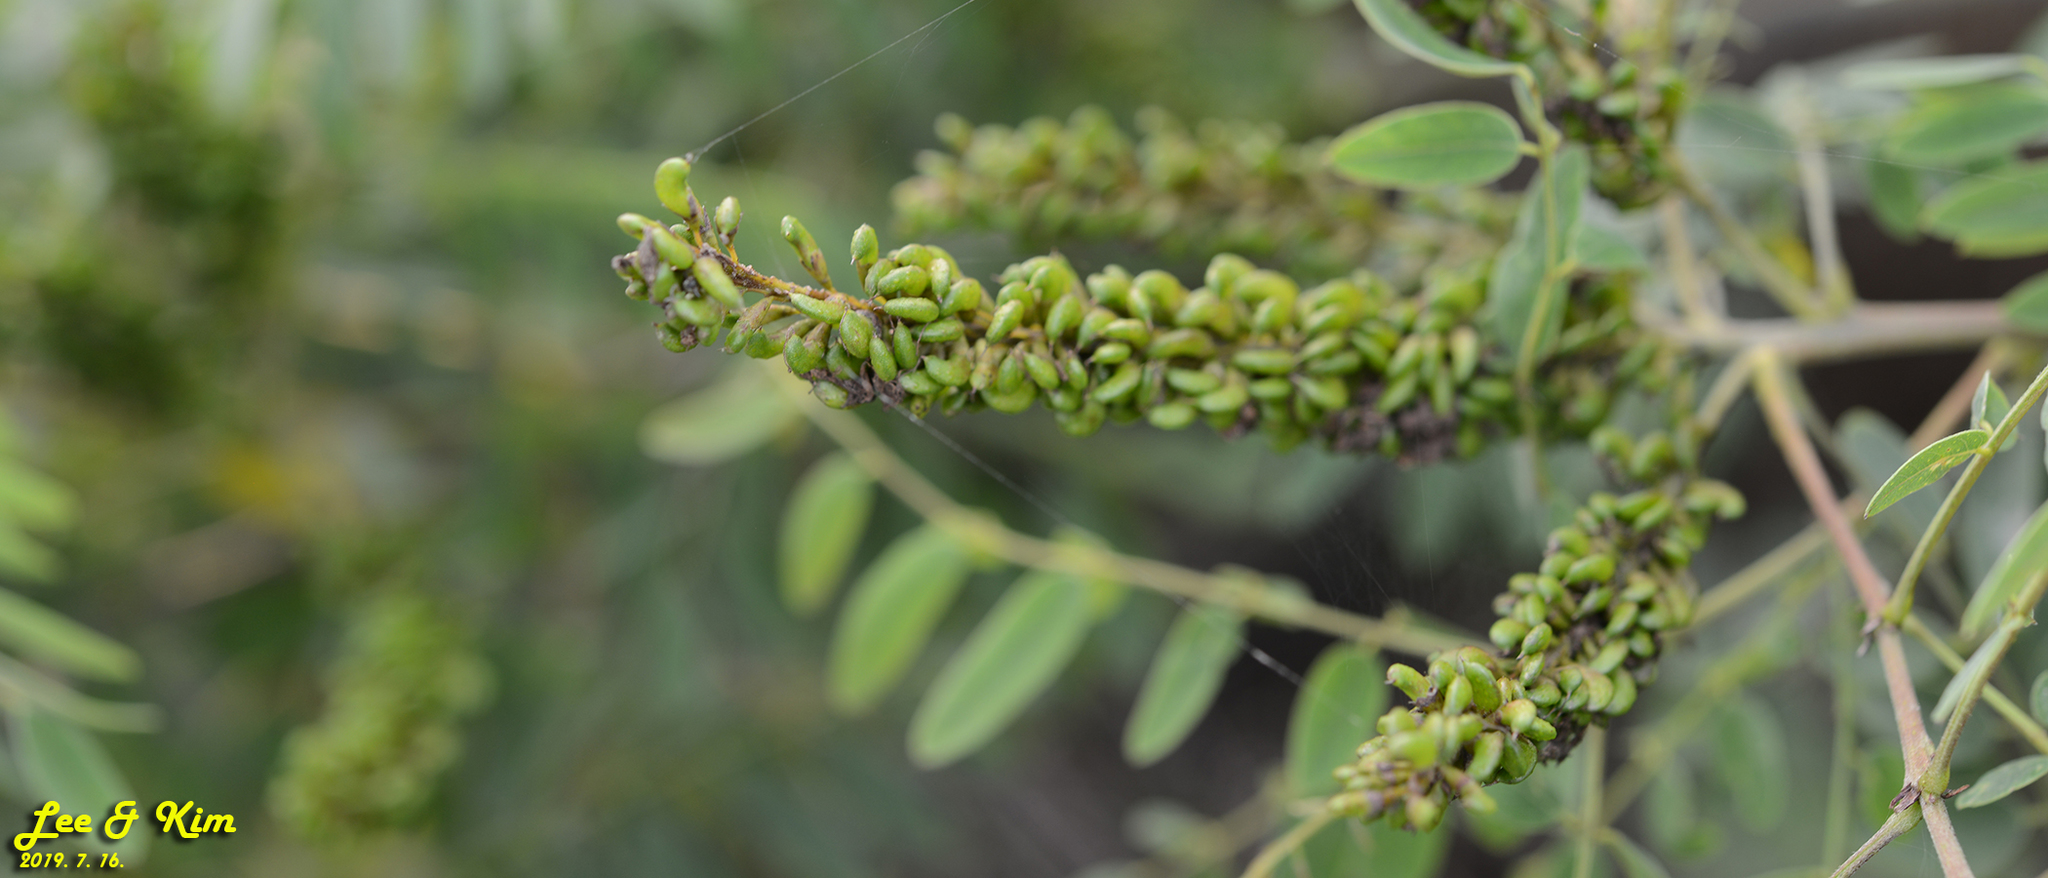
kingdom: Plantae
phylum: Tracheophyta
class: Magnoliopsida
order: Fabales
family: Fabaceae
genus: Amorpha
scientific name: Amorpha fruticosa
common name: False indigo
